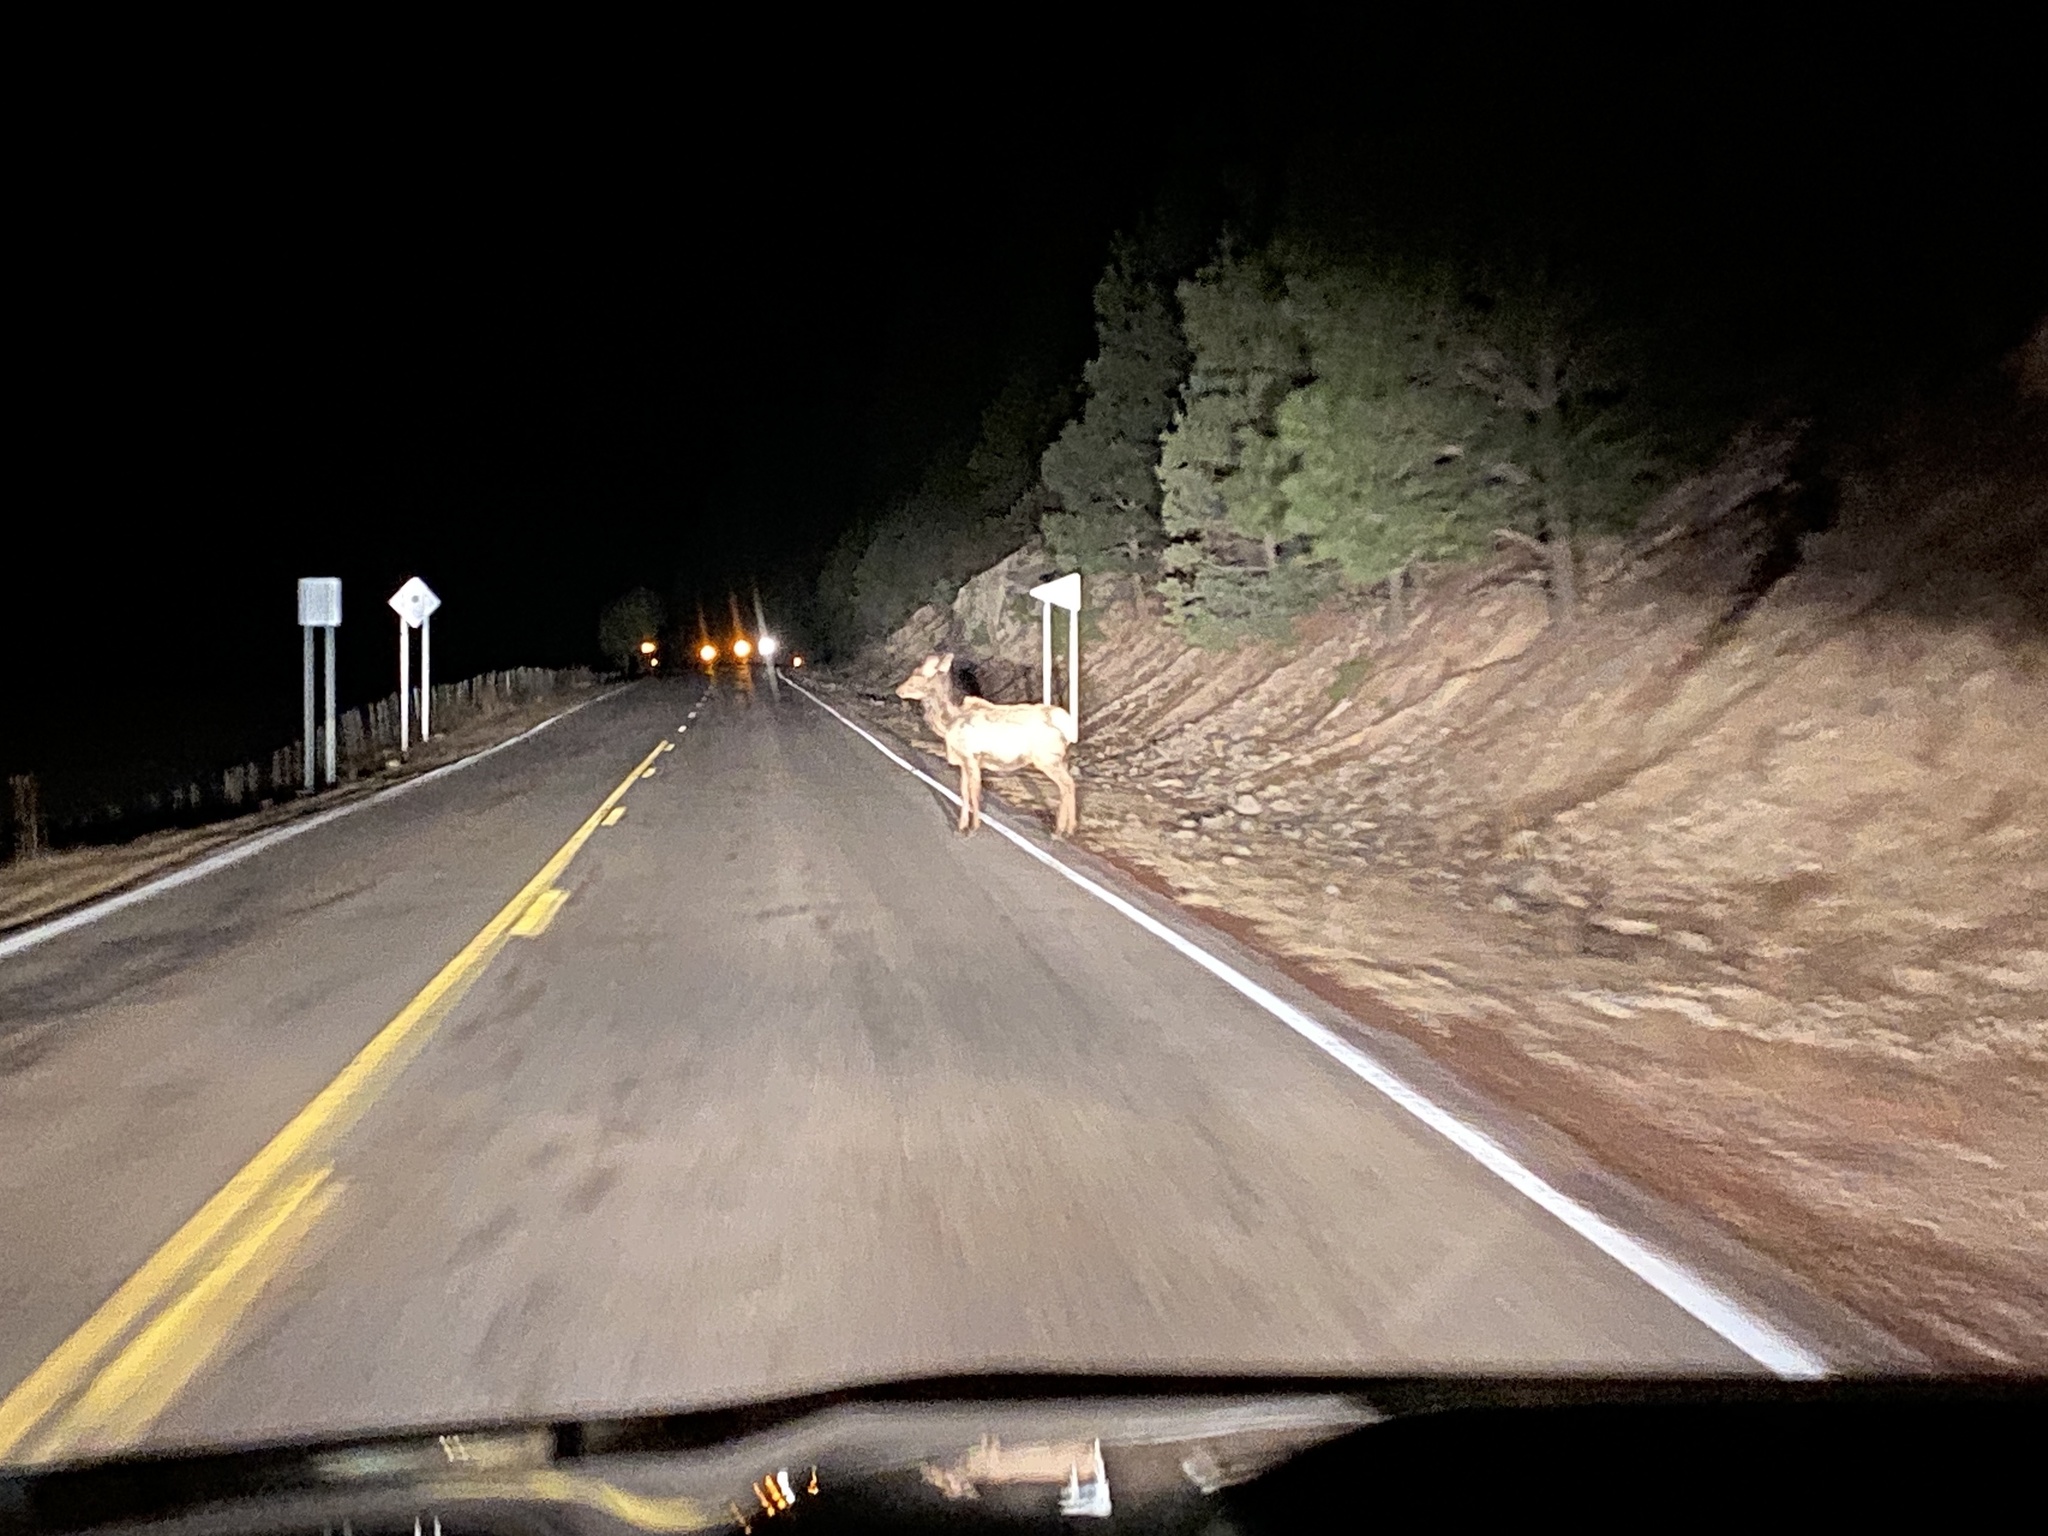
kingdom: Animalia
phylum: Chordata
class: Mammalia
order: Artiodactyla
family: Cervidae
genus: Cervus
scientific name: Cervus elaphus
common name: Red deer
